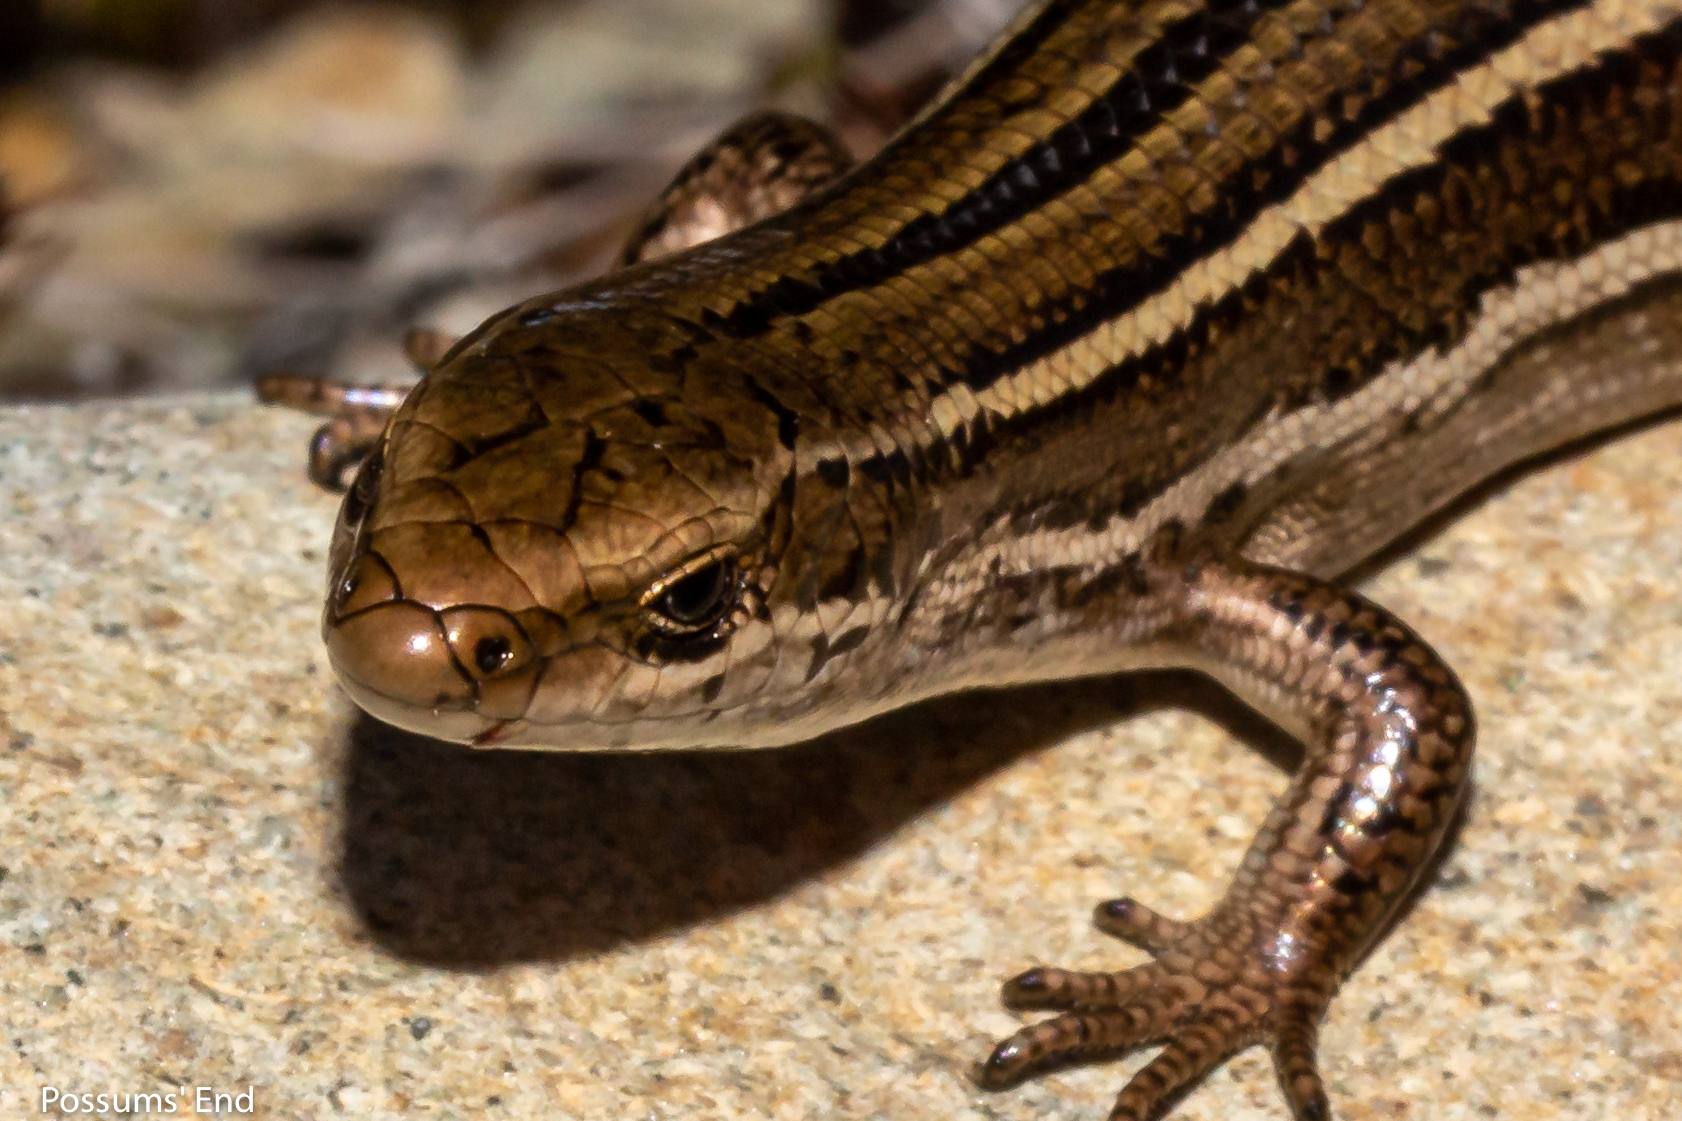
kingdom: Animalia
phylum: Chordata
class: Squamata
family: Scincidae
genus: Oligosoma
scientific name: Oligosoma toka
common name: Nevis skink
